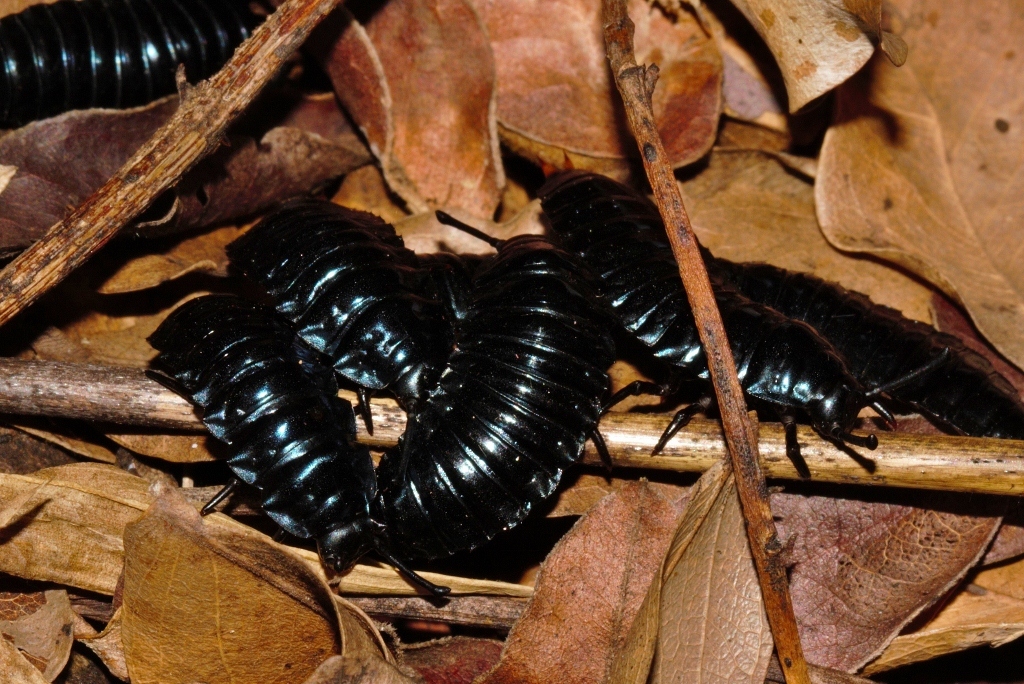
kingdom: Animalia
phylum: Arthropoda
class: Insecta
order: Coleoptera
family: Tenebrionidae
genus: Catamerus
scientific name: Catamerus
